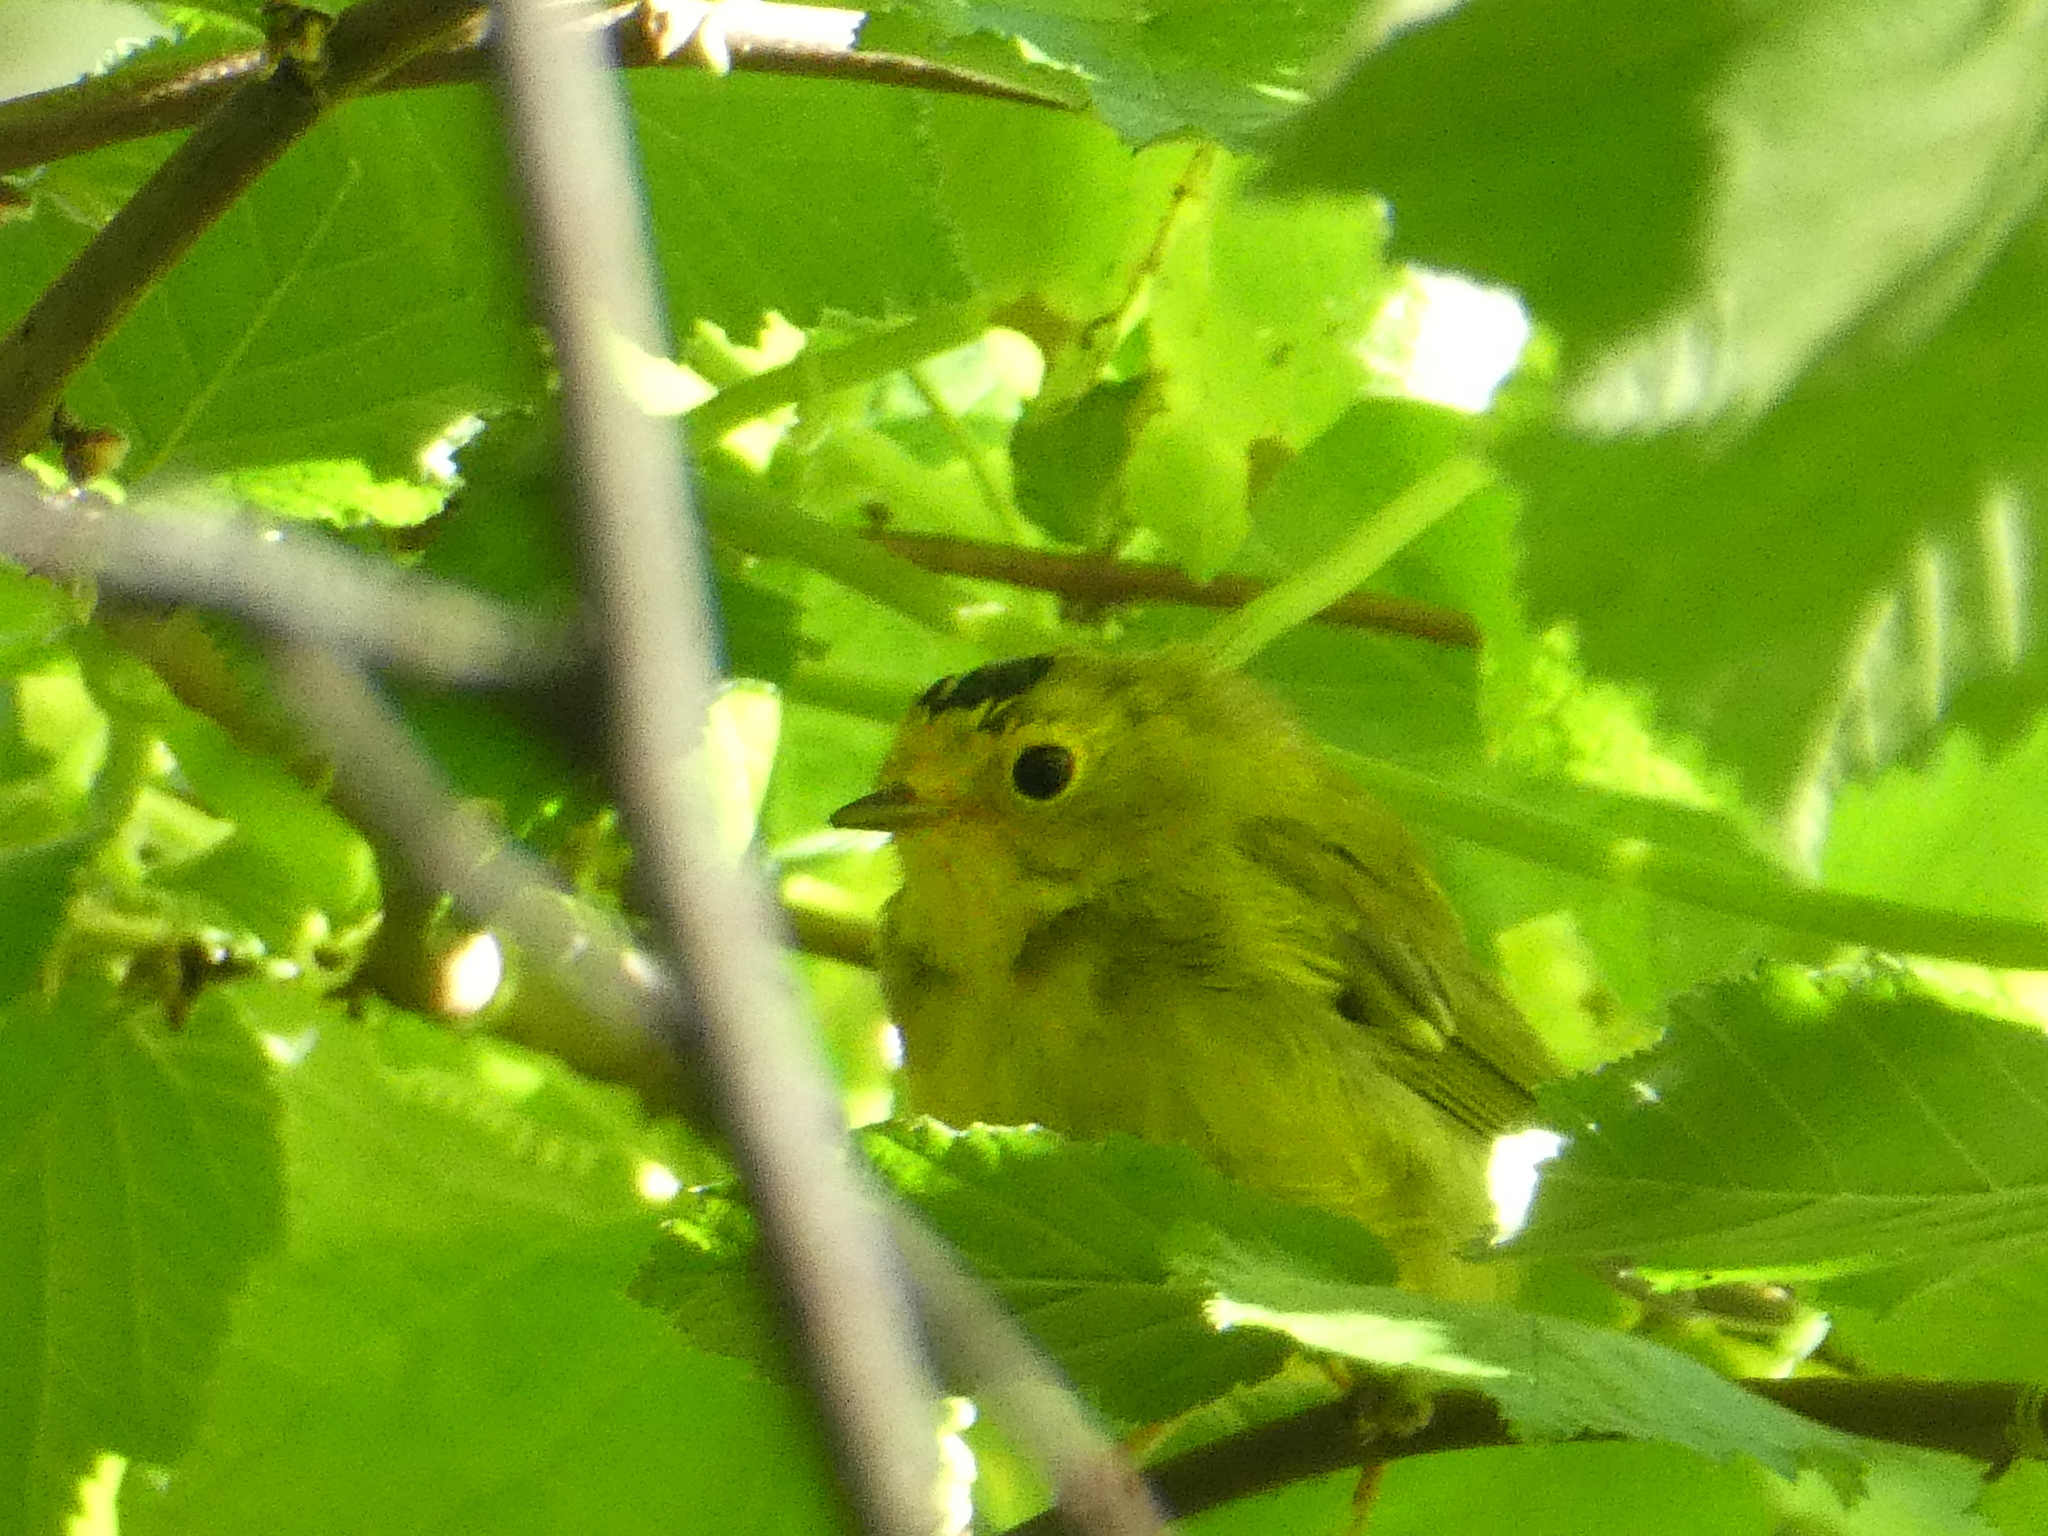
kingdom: Animalia
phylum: Chordata
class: Aves
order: Passeriformes
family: Parulidae
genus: Cardellina
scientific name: Cardellina pusilla
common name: Wilson's warbler
